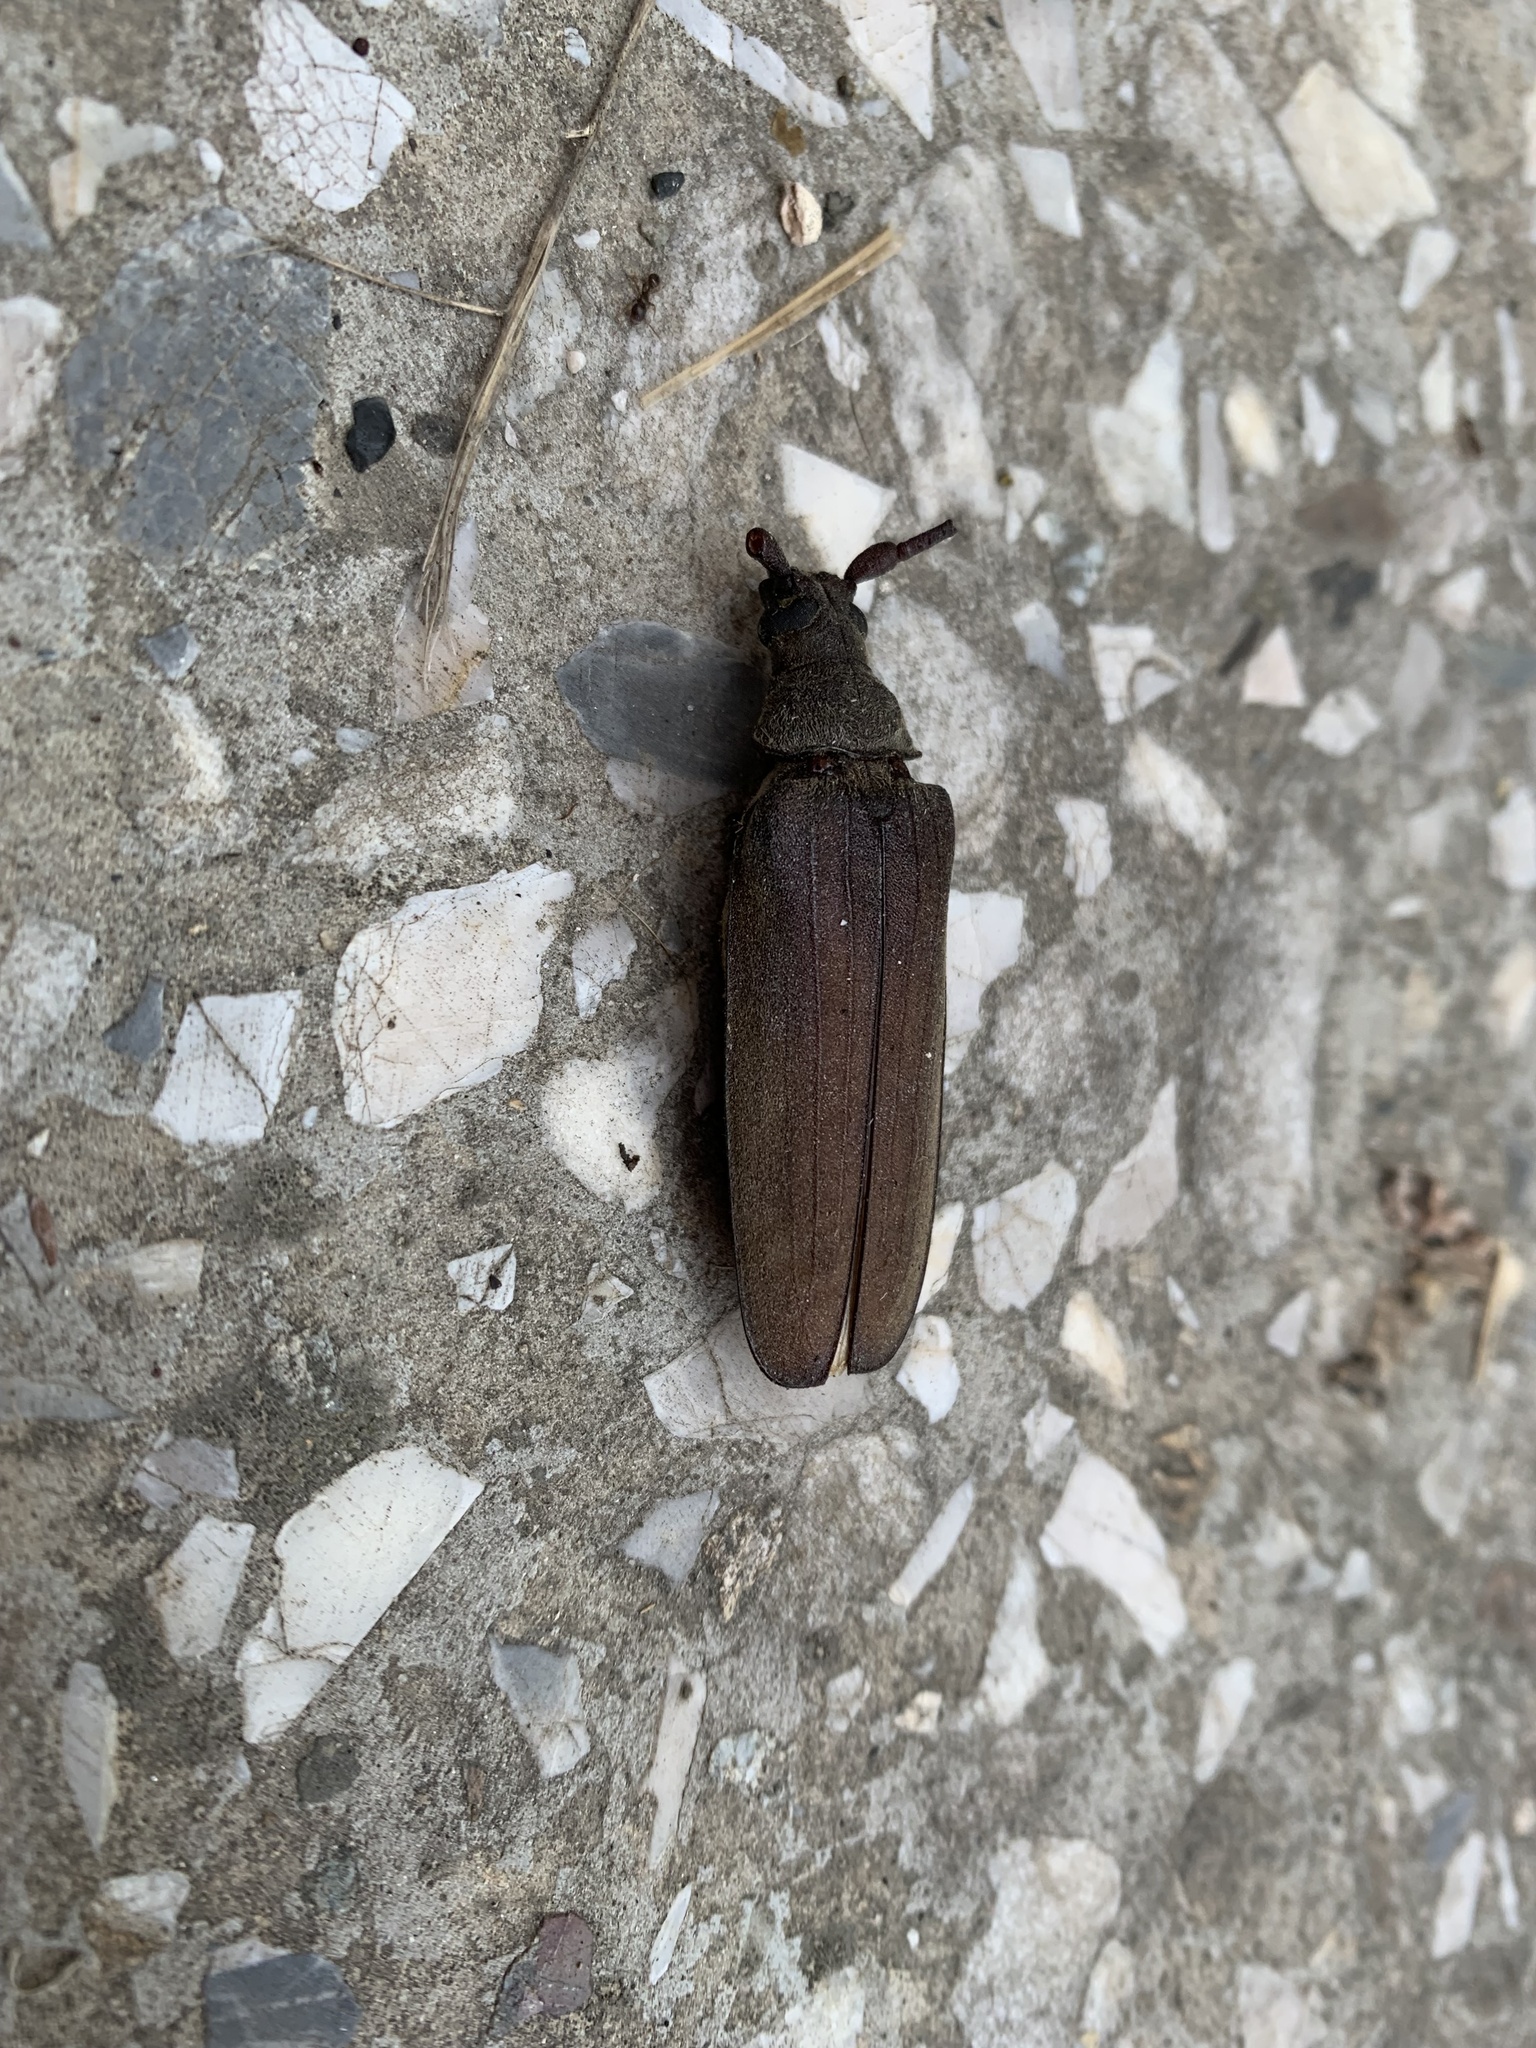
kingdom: Animalia
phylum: Arthropoda
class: Insecta
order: Coleoptera
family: Cerambycidae
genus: Aegosoma
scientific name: Aegosoma scabricorne
